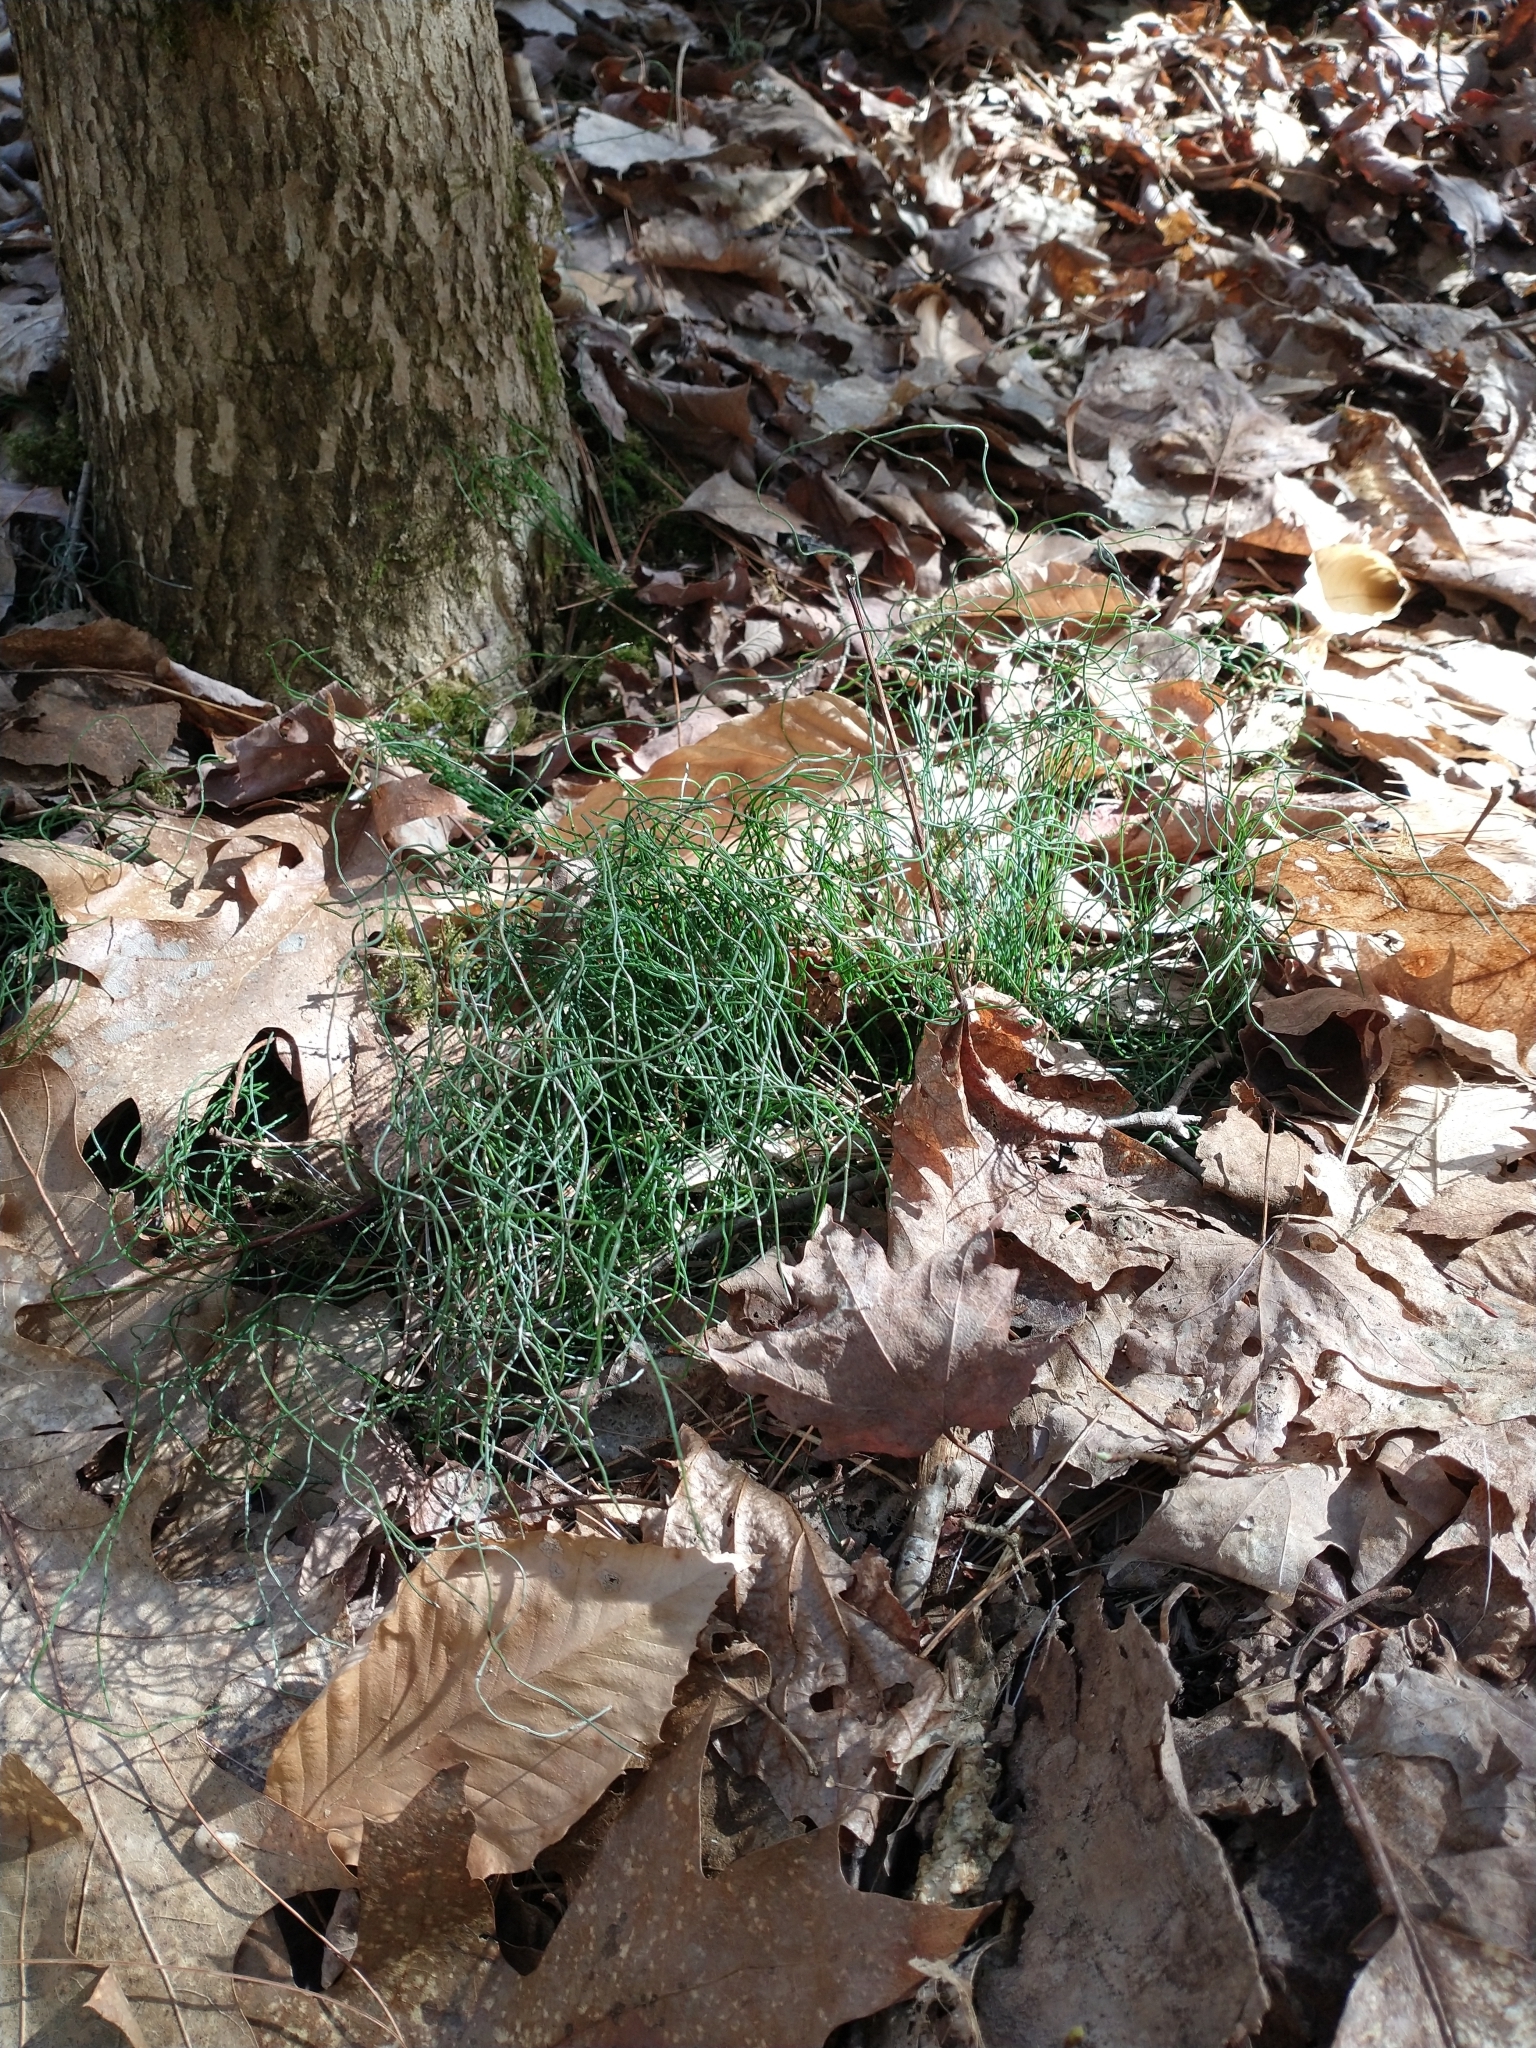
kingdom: Plantae
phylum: Tracheophyta
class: Polypodiopsida
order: Equisetales
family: Equisetaceae
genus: Equisetum
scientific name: Equisetum scirpoides
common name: Delicate horsetail
